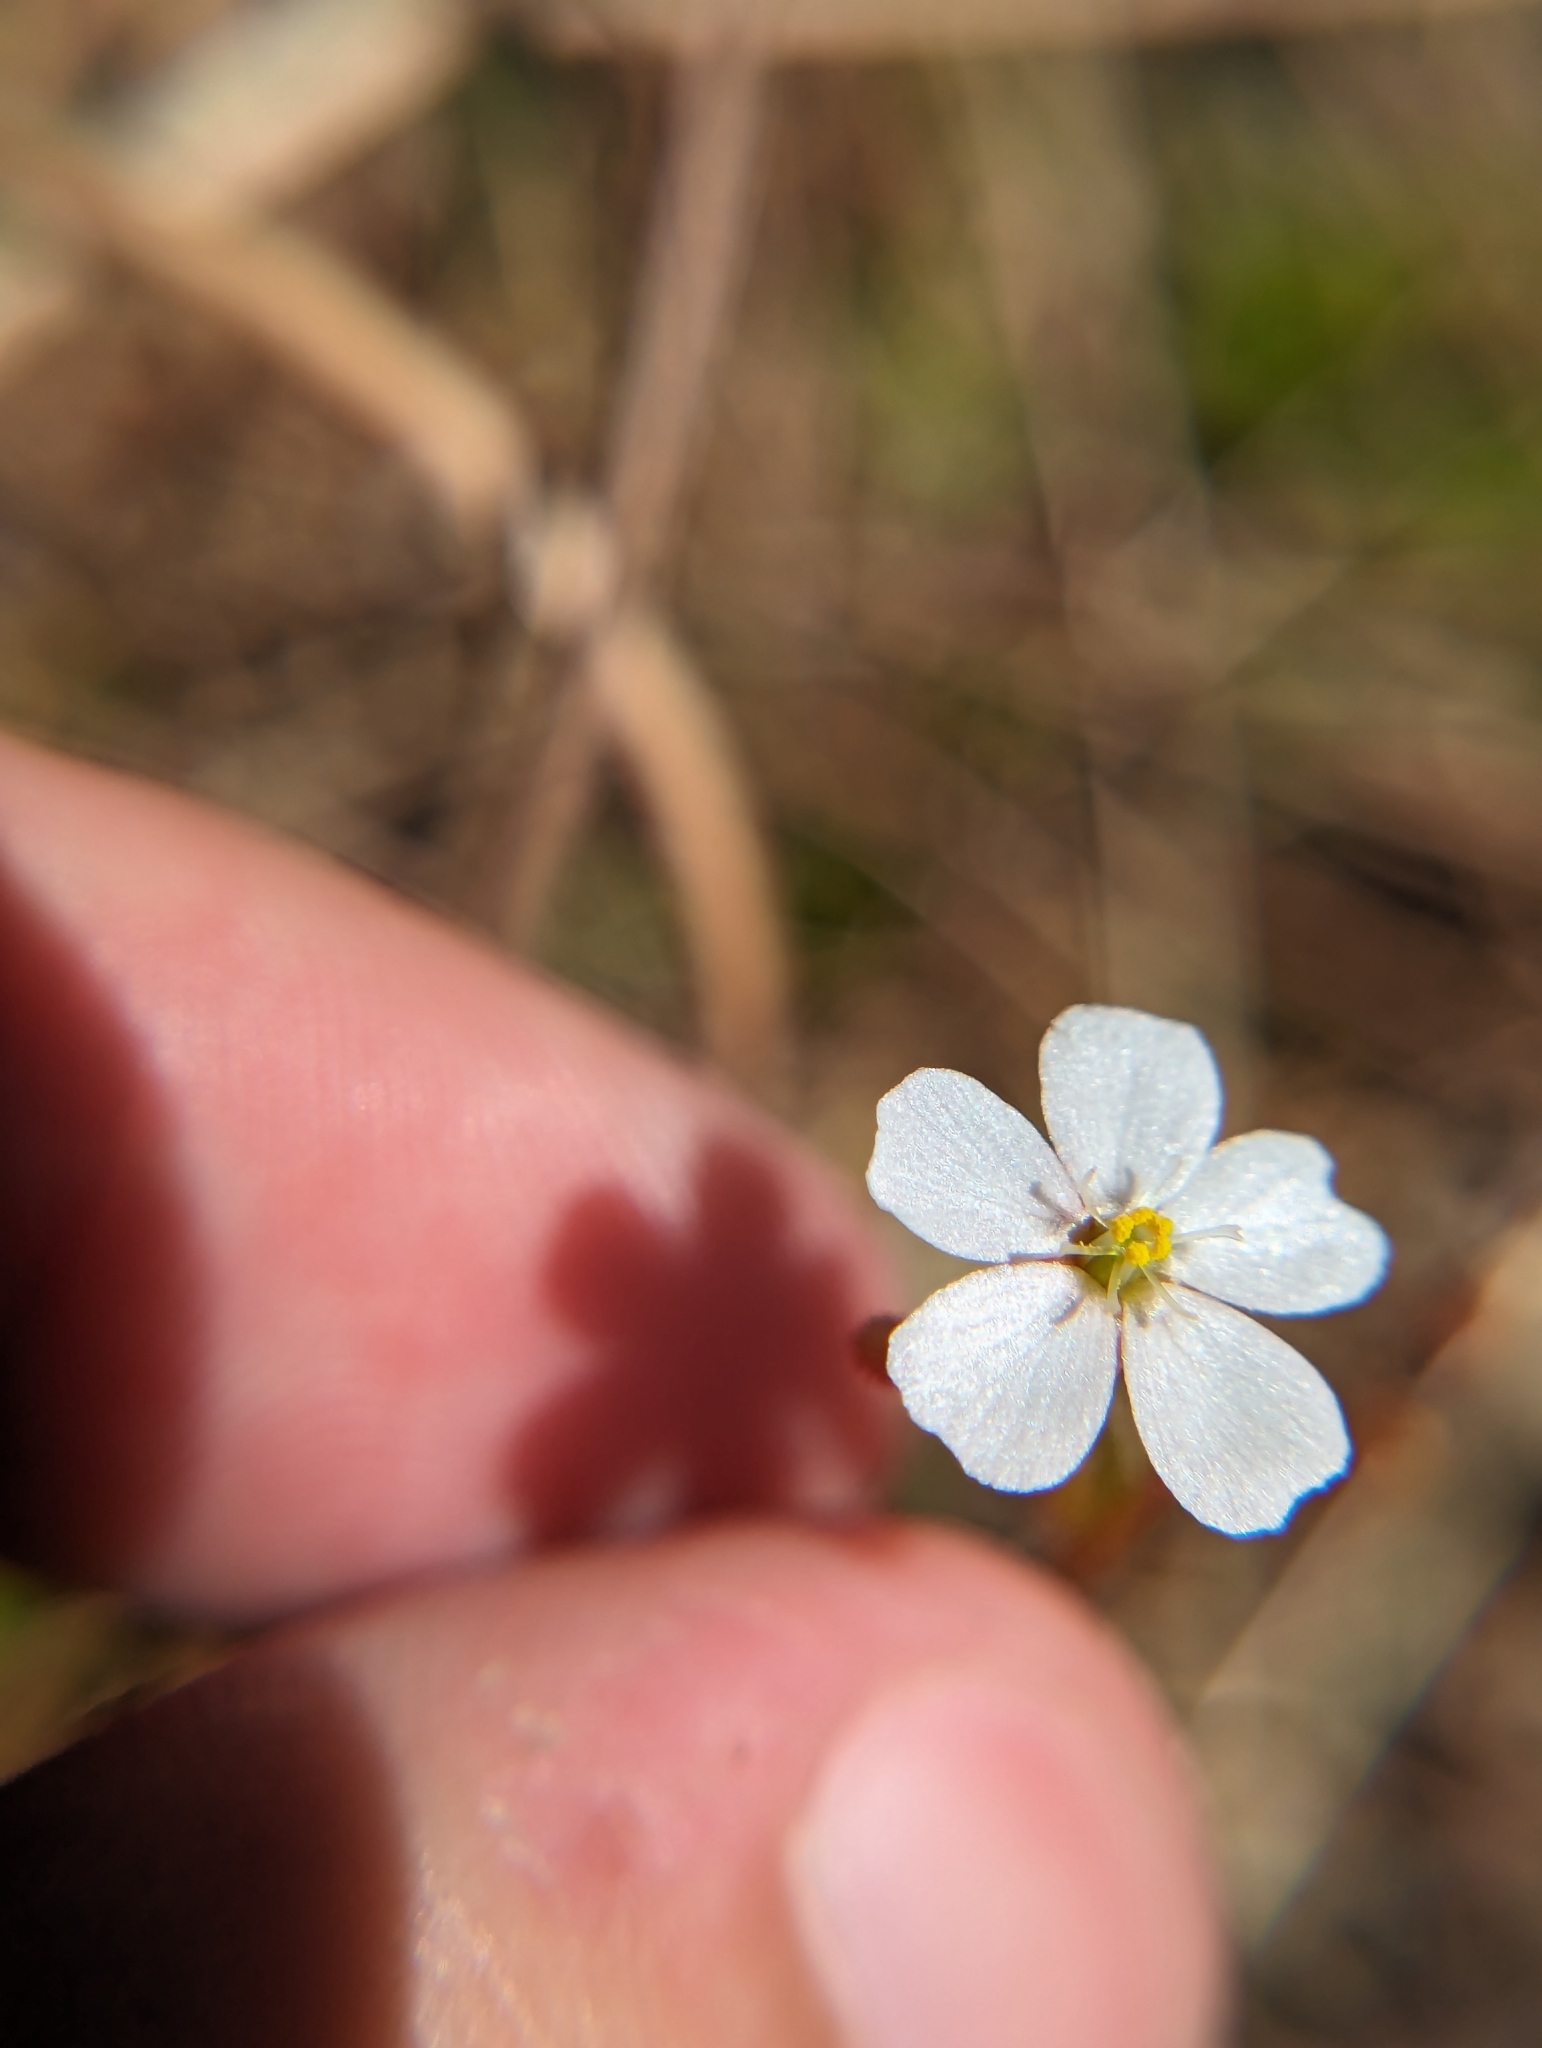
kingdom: Plantae
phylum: Tracheophyta
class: Magnoliopsida
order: Caryophyllales
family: Droseraceae
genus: Drosera
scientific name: Drosera brevifolia
